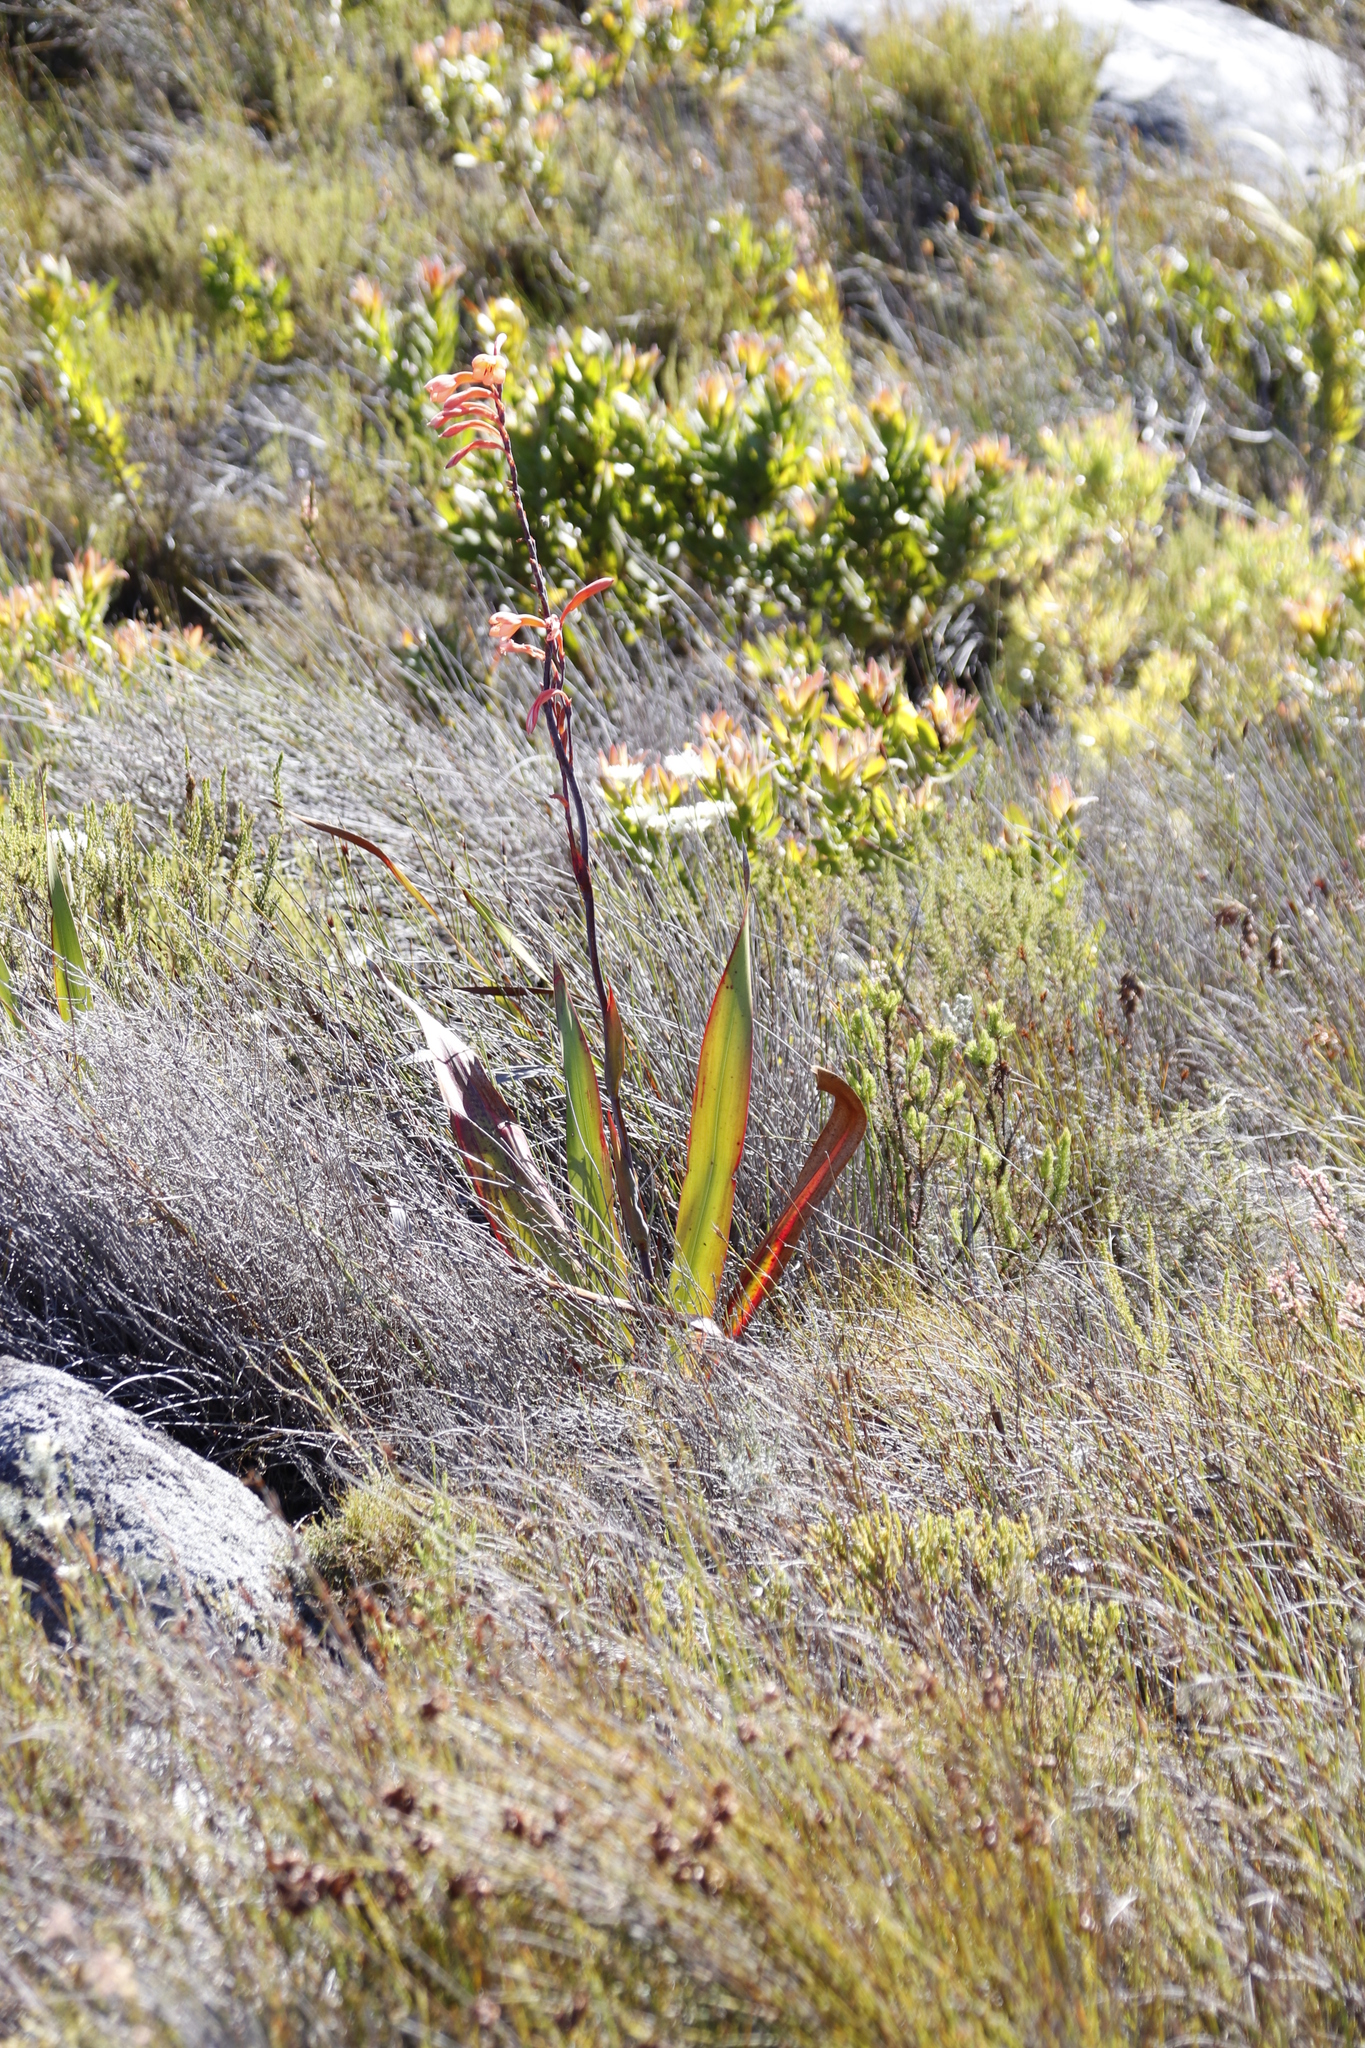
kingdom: Plantae
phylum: Tracheophyta
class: Liliopsida
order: Asparagales
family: Iridaceae
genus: Watsonia
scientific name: Watsonia tabularis
